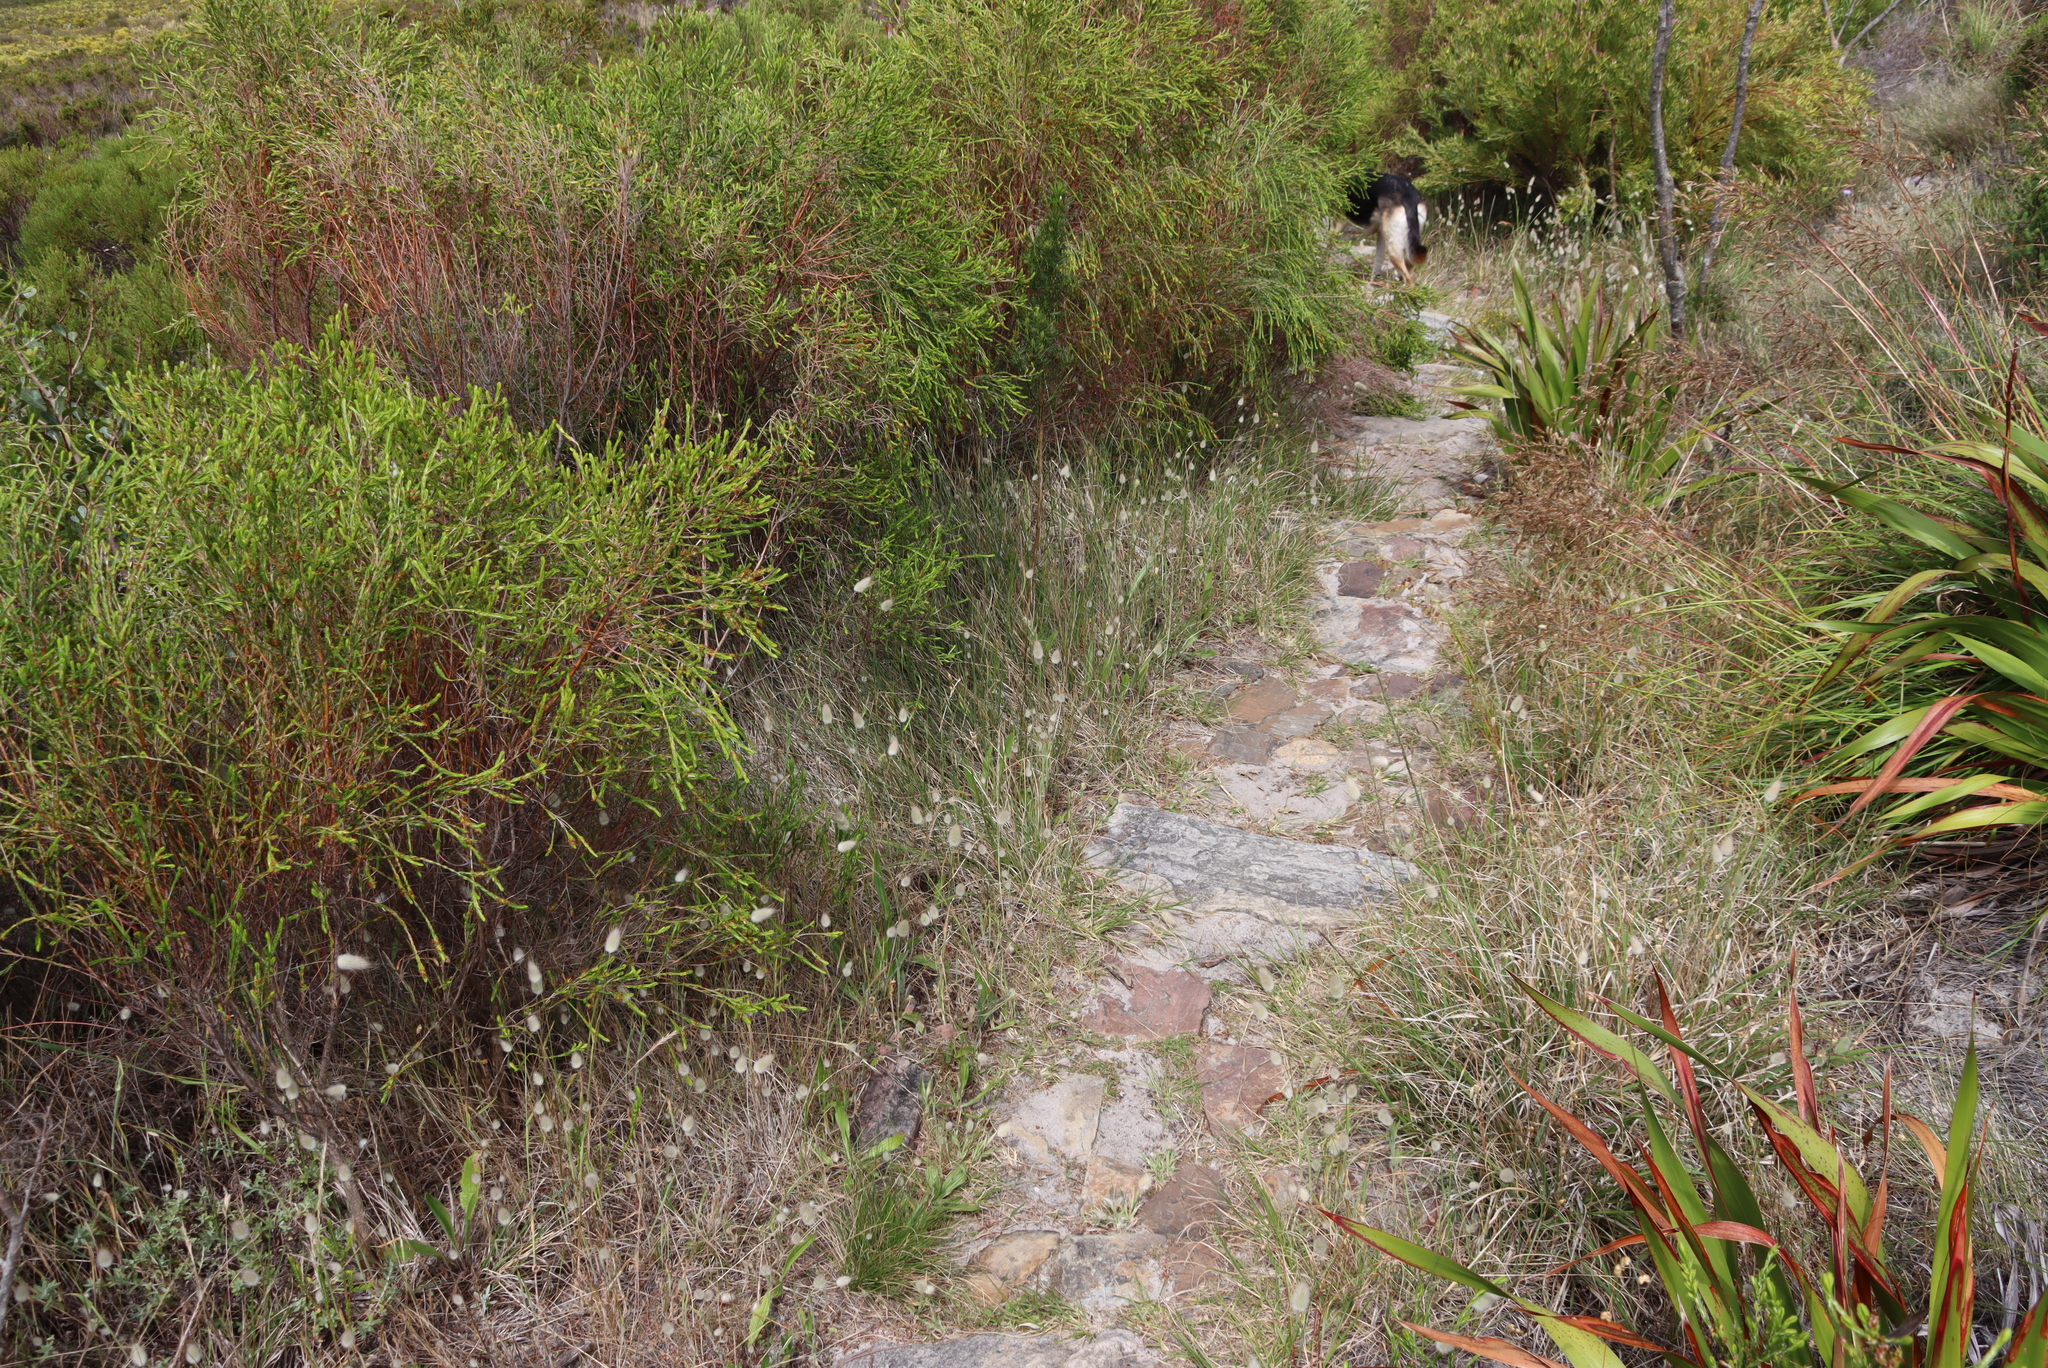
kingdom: Plantae
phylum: Tracheophyta
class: Liliopsida
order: Poales
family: Poaceae
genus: Lagurus
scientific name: Lagurus ovatus
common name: Hare's-tail
